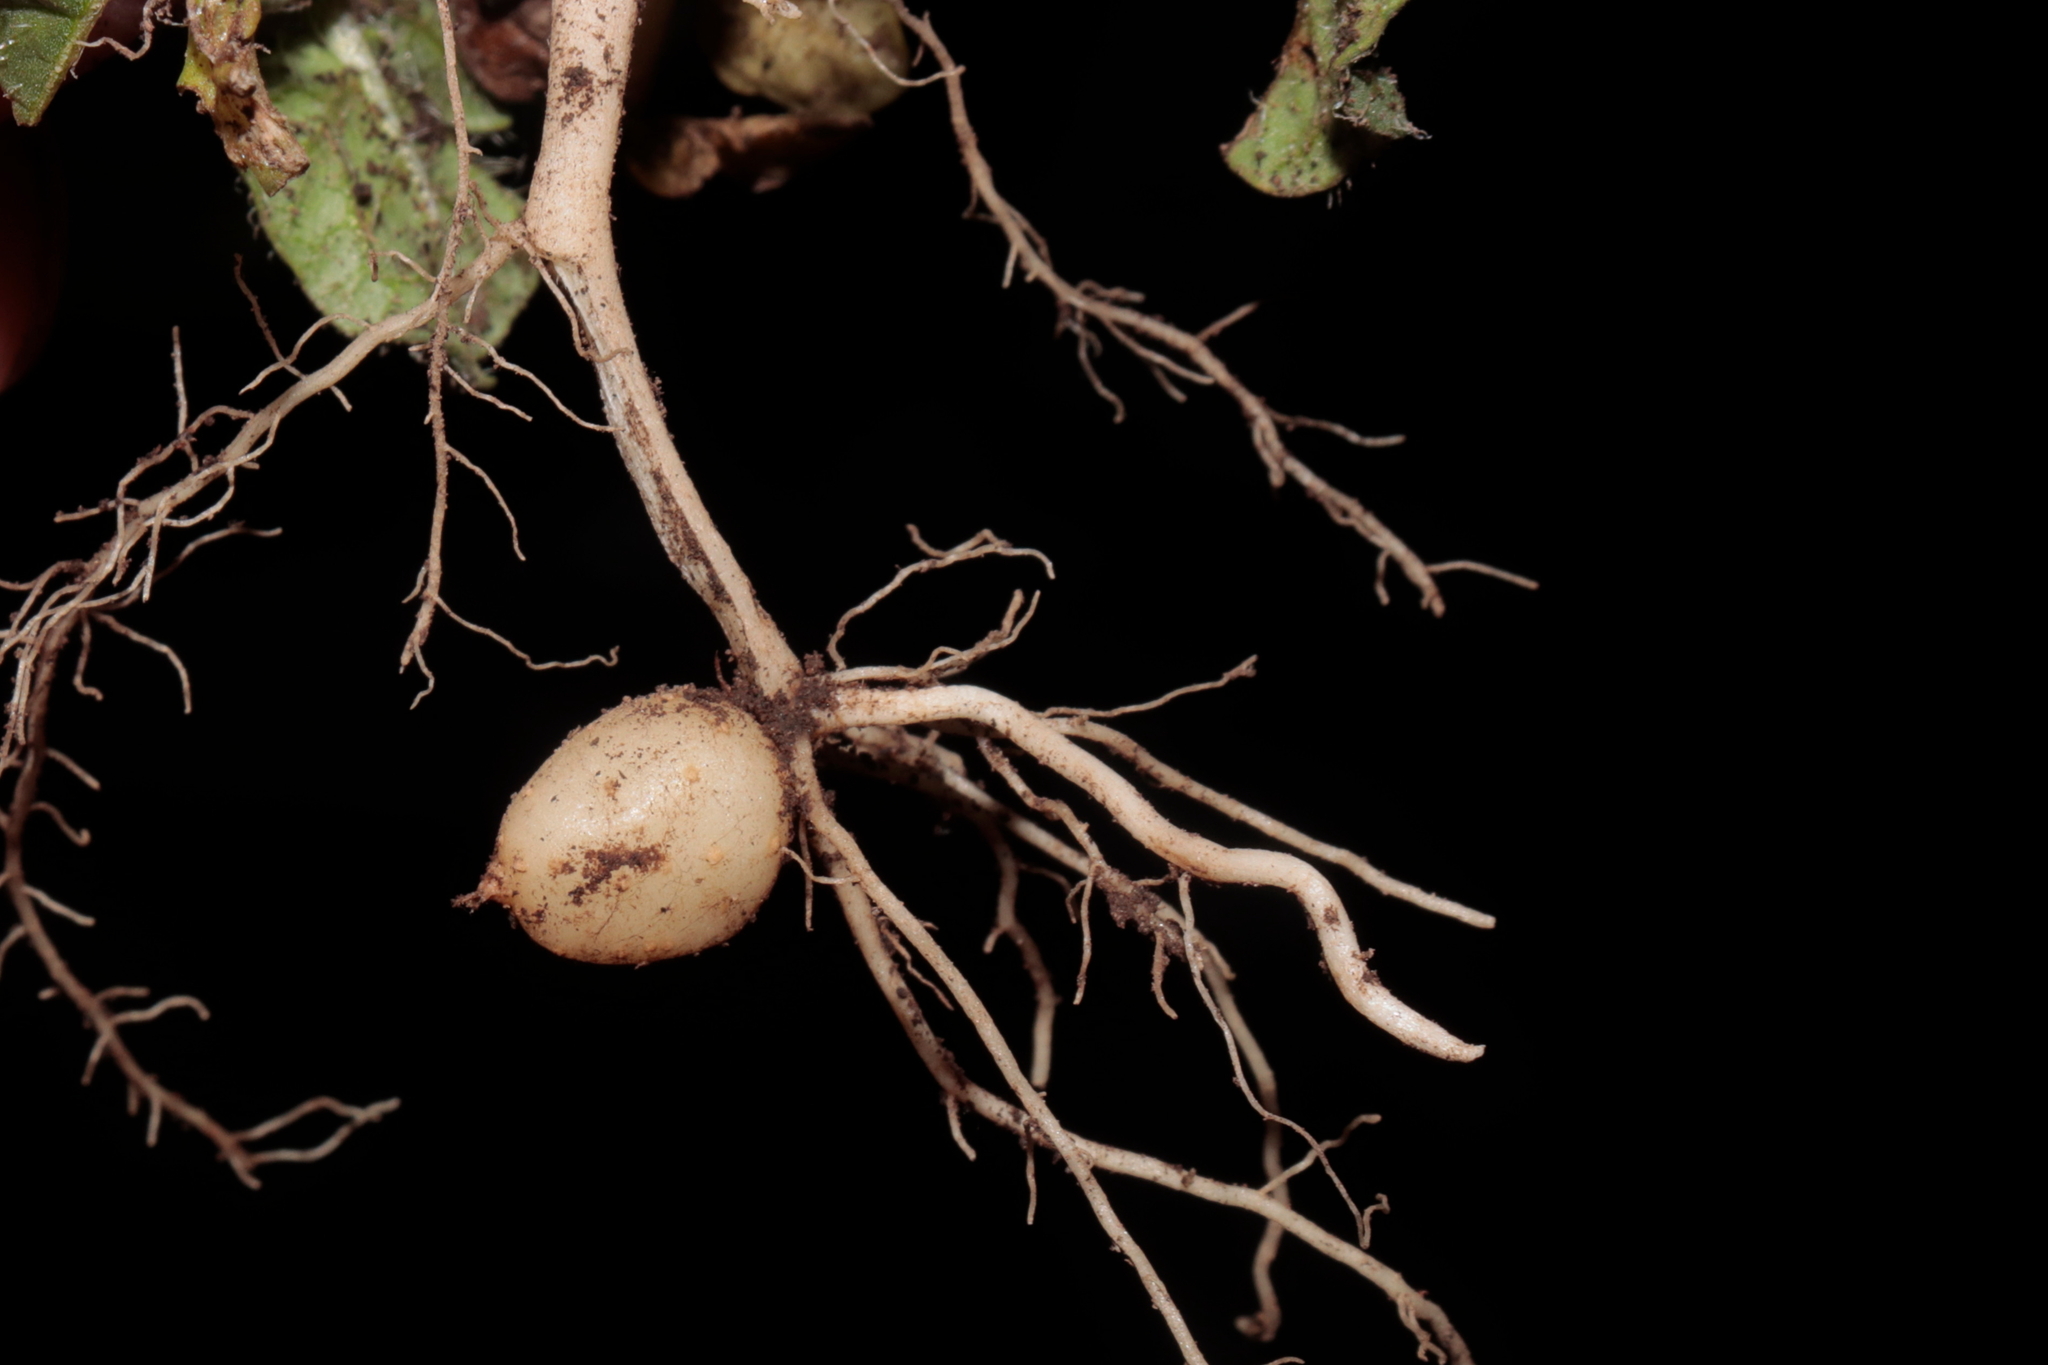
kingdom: Plantae
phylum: Tracheophyta
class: Magnoliopsida
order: Solanales
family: Solanaceae
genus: Solanum
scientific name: Solanum acaule
